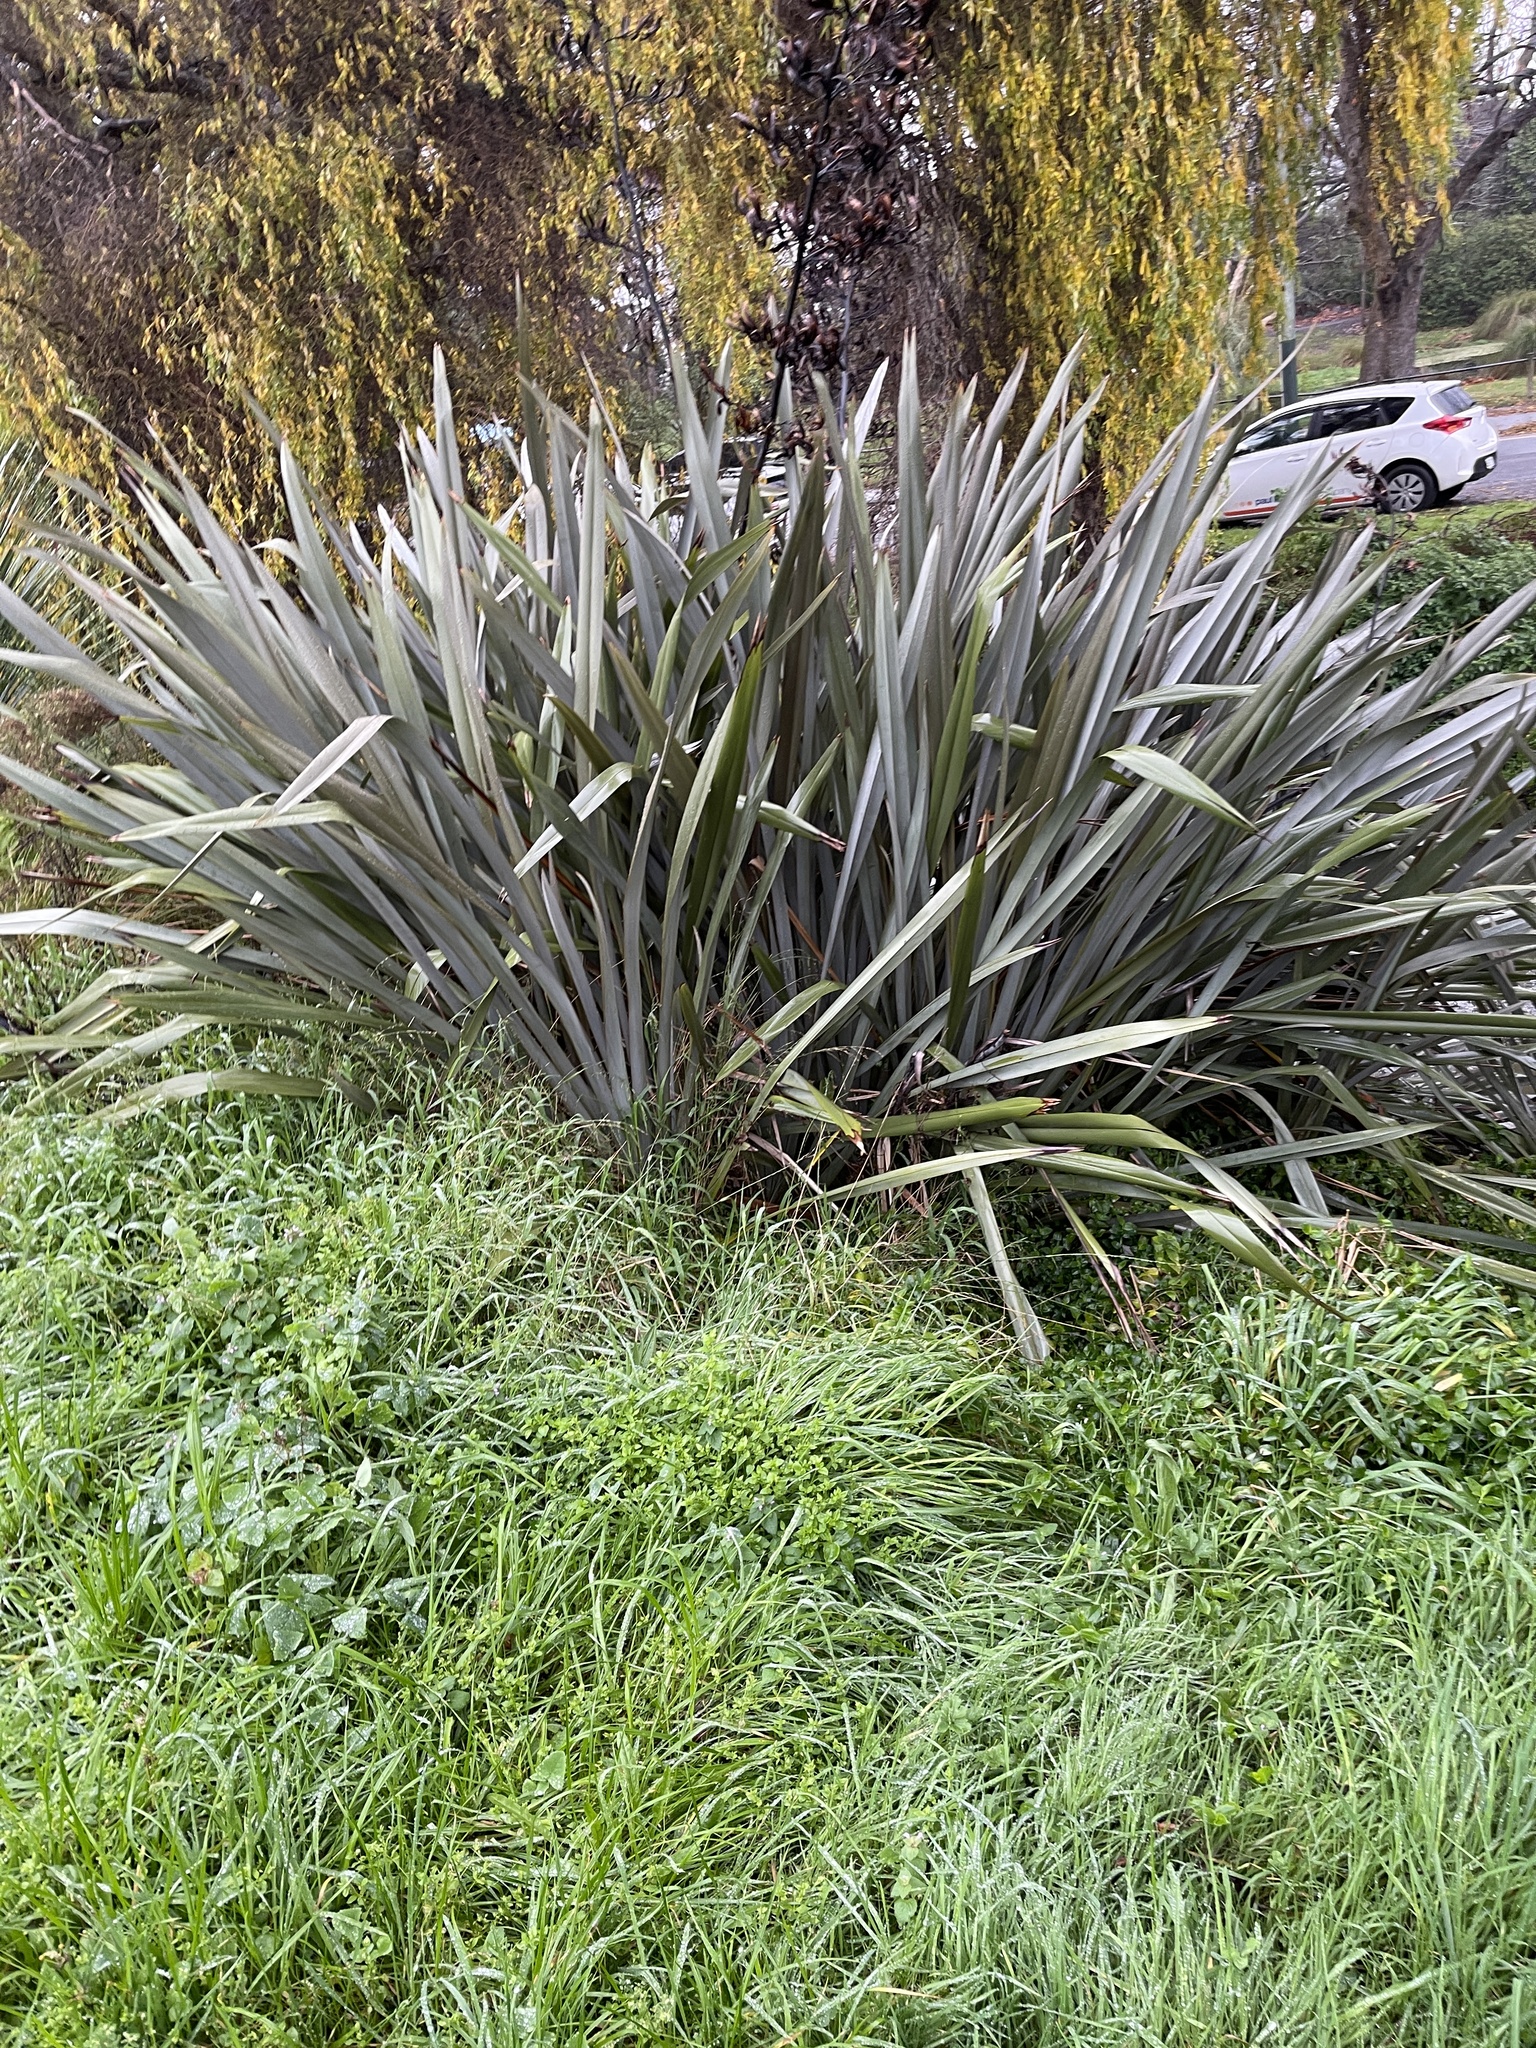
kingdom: Plantae
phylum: Tracheophyta
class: Liliopsida
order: Asparagales
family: Asphodelaceae
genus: Phormium
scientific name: Phormium tenax
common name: New zealand flax
